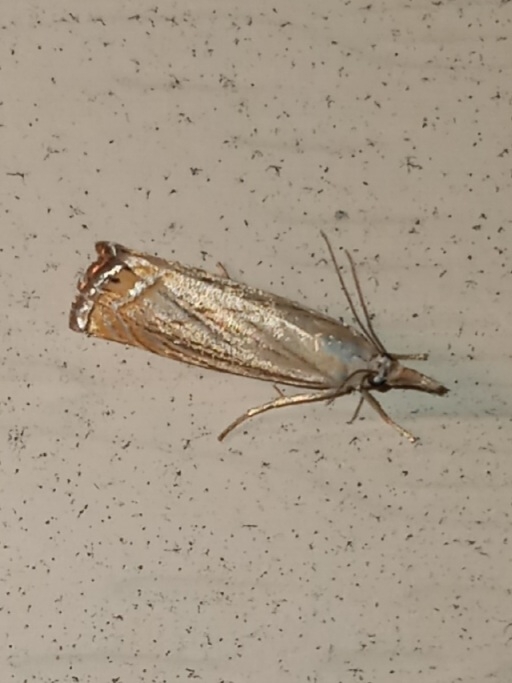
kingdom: Animalia
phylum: Arthropoda
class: Insecta
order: Lepidoptera
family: Crambidae
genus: Chrysoteuchia
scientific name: Chrysoteuchia topiarius
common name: Topiary grass-veneer
